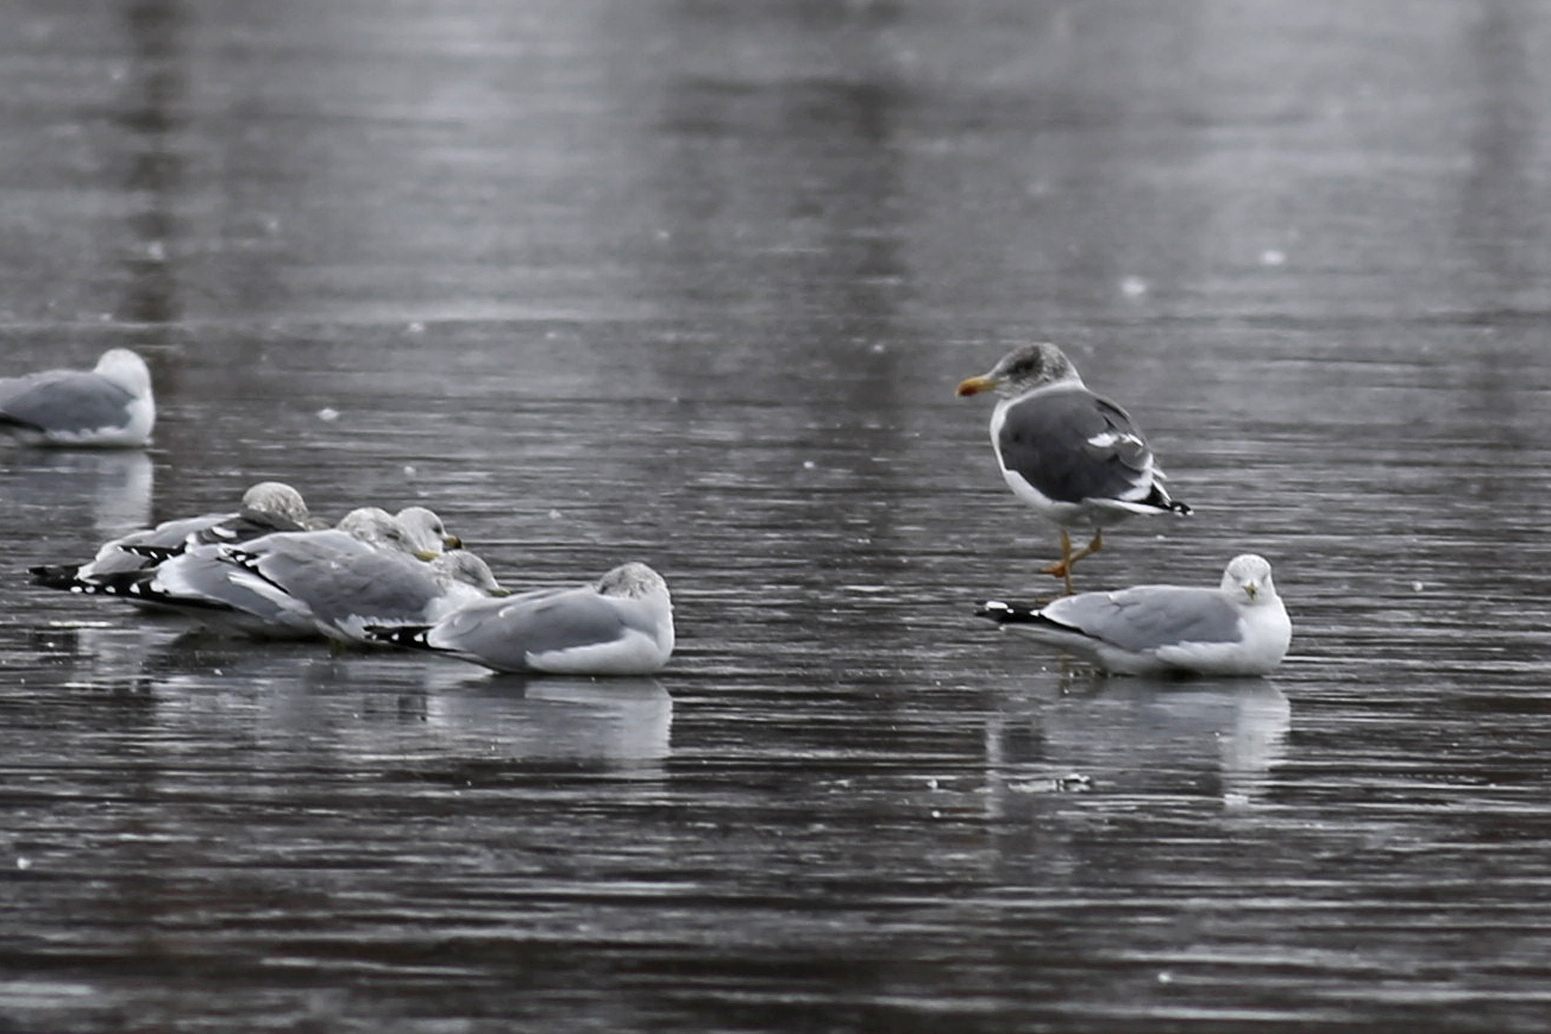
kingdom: Animalia
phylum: Chordata
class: Aves
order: Charadriiformes
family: Laridae
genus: Larus
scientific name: Larus fuscus
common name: Lesser black-backed gull
